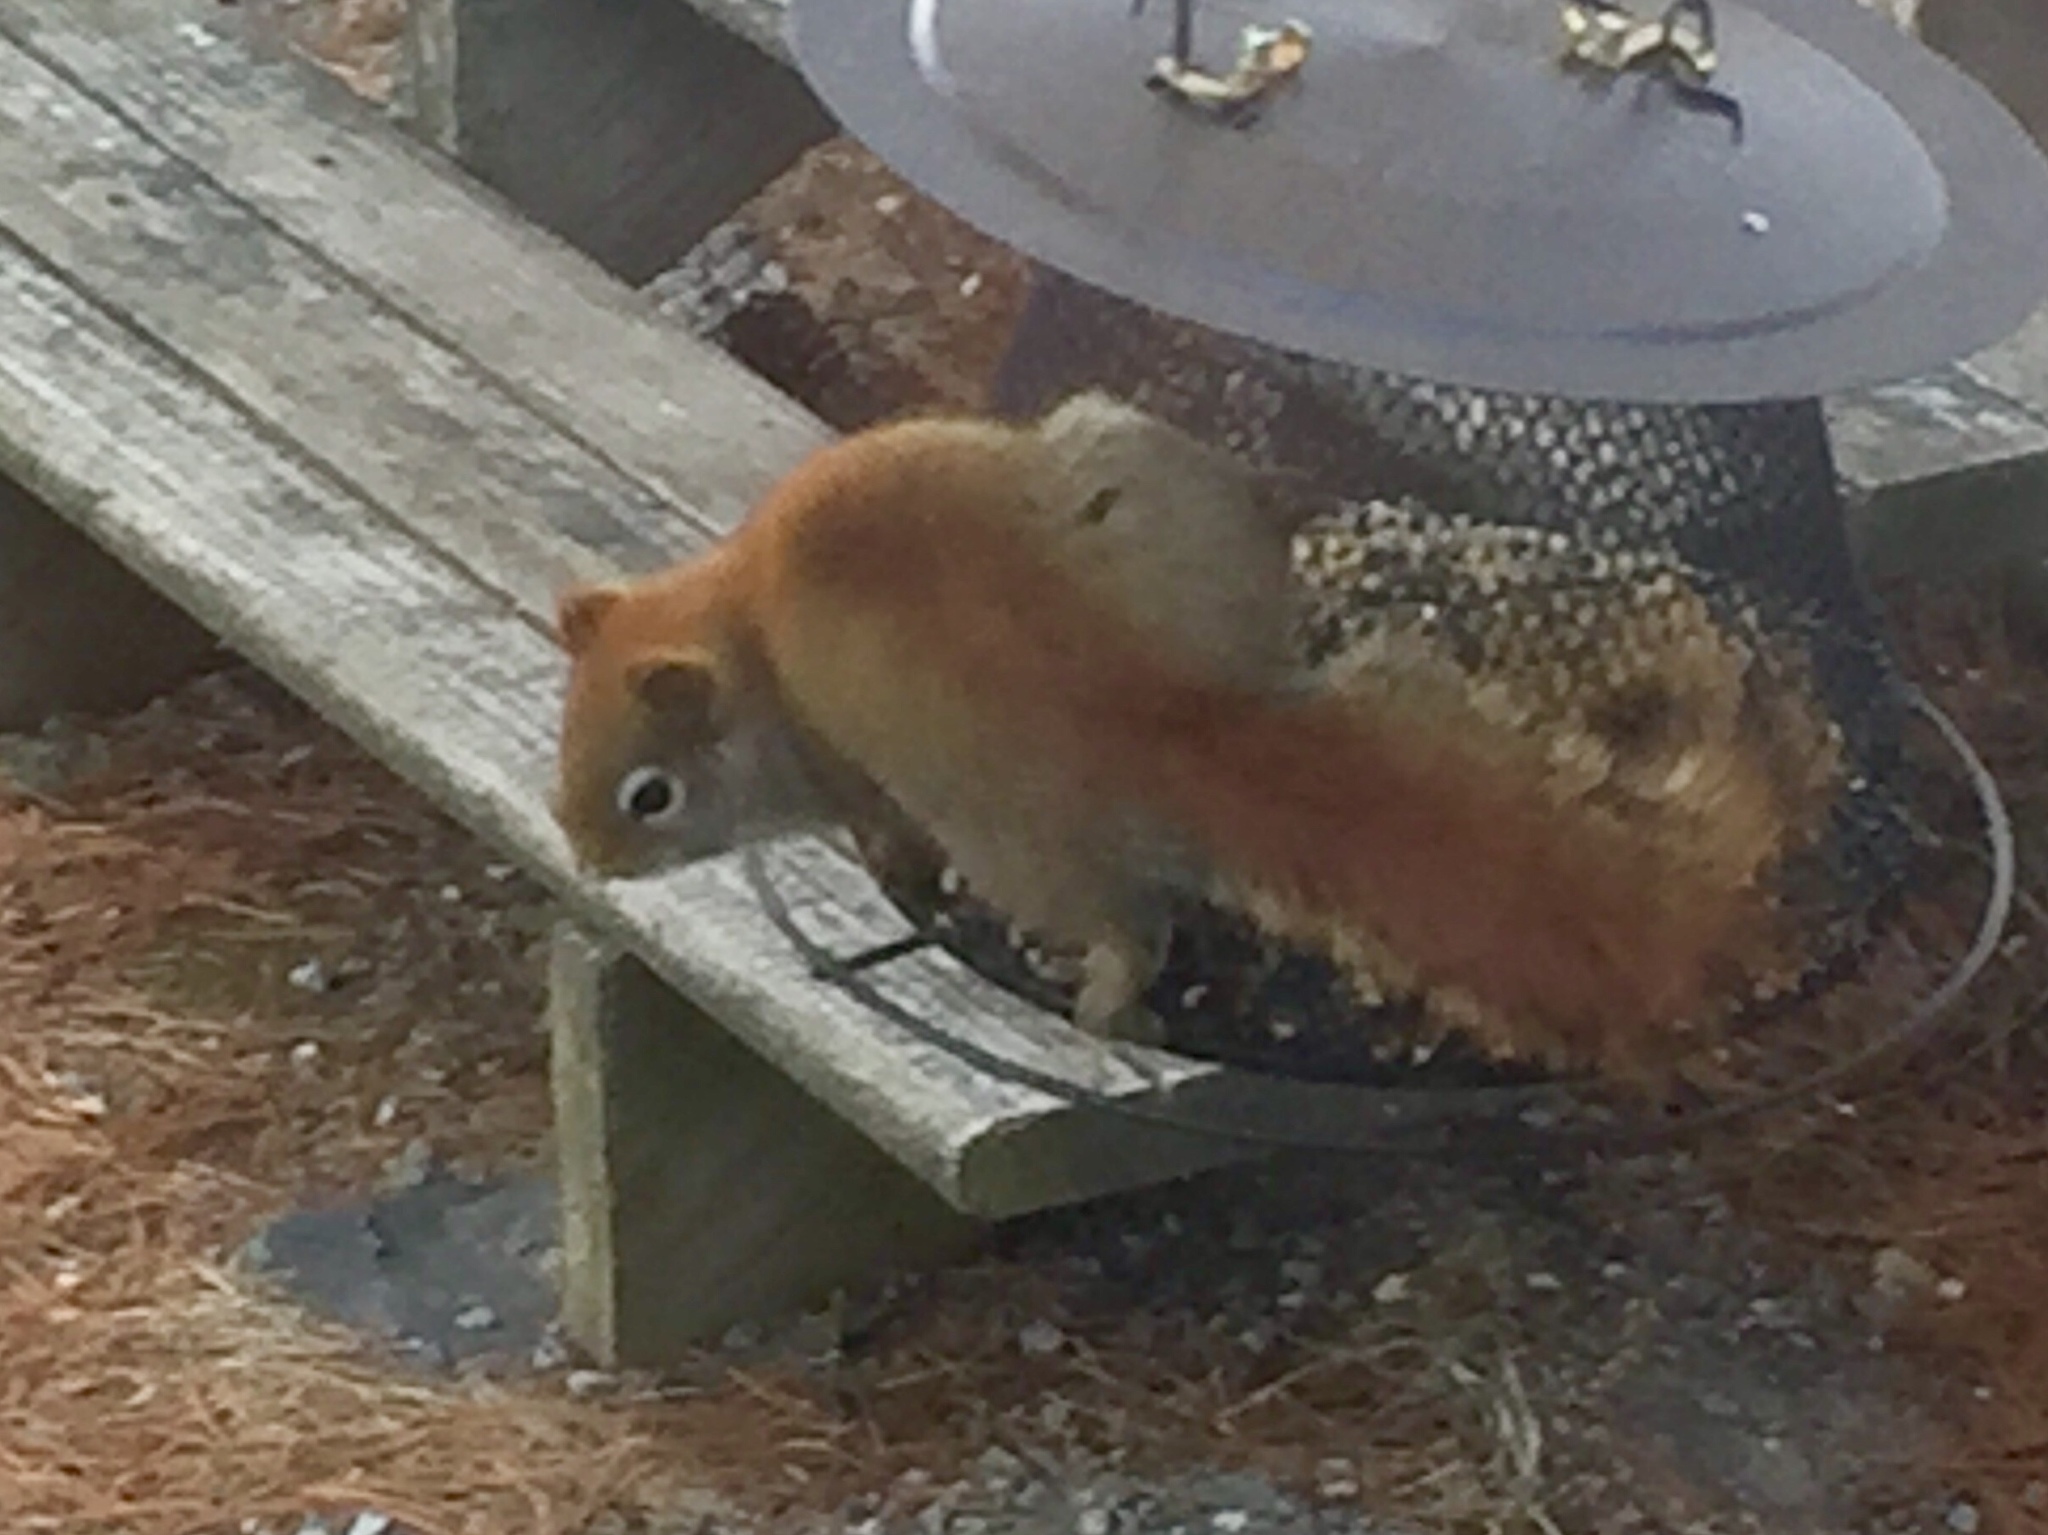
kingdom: Animalia
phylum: Chordata
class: Mammalia
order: Rodentia
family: Sciuridae
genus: Tamiasciurus
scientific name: Tamiasciurus hudsonicus
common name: Red squirrel
